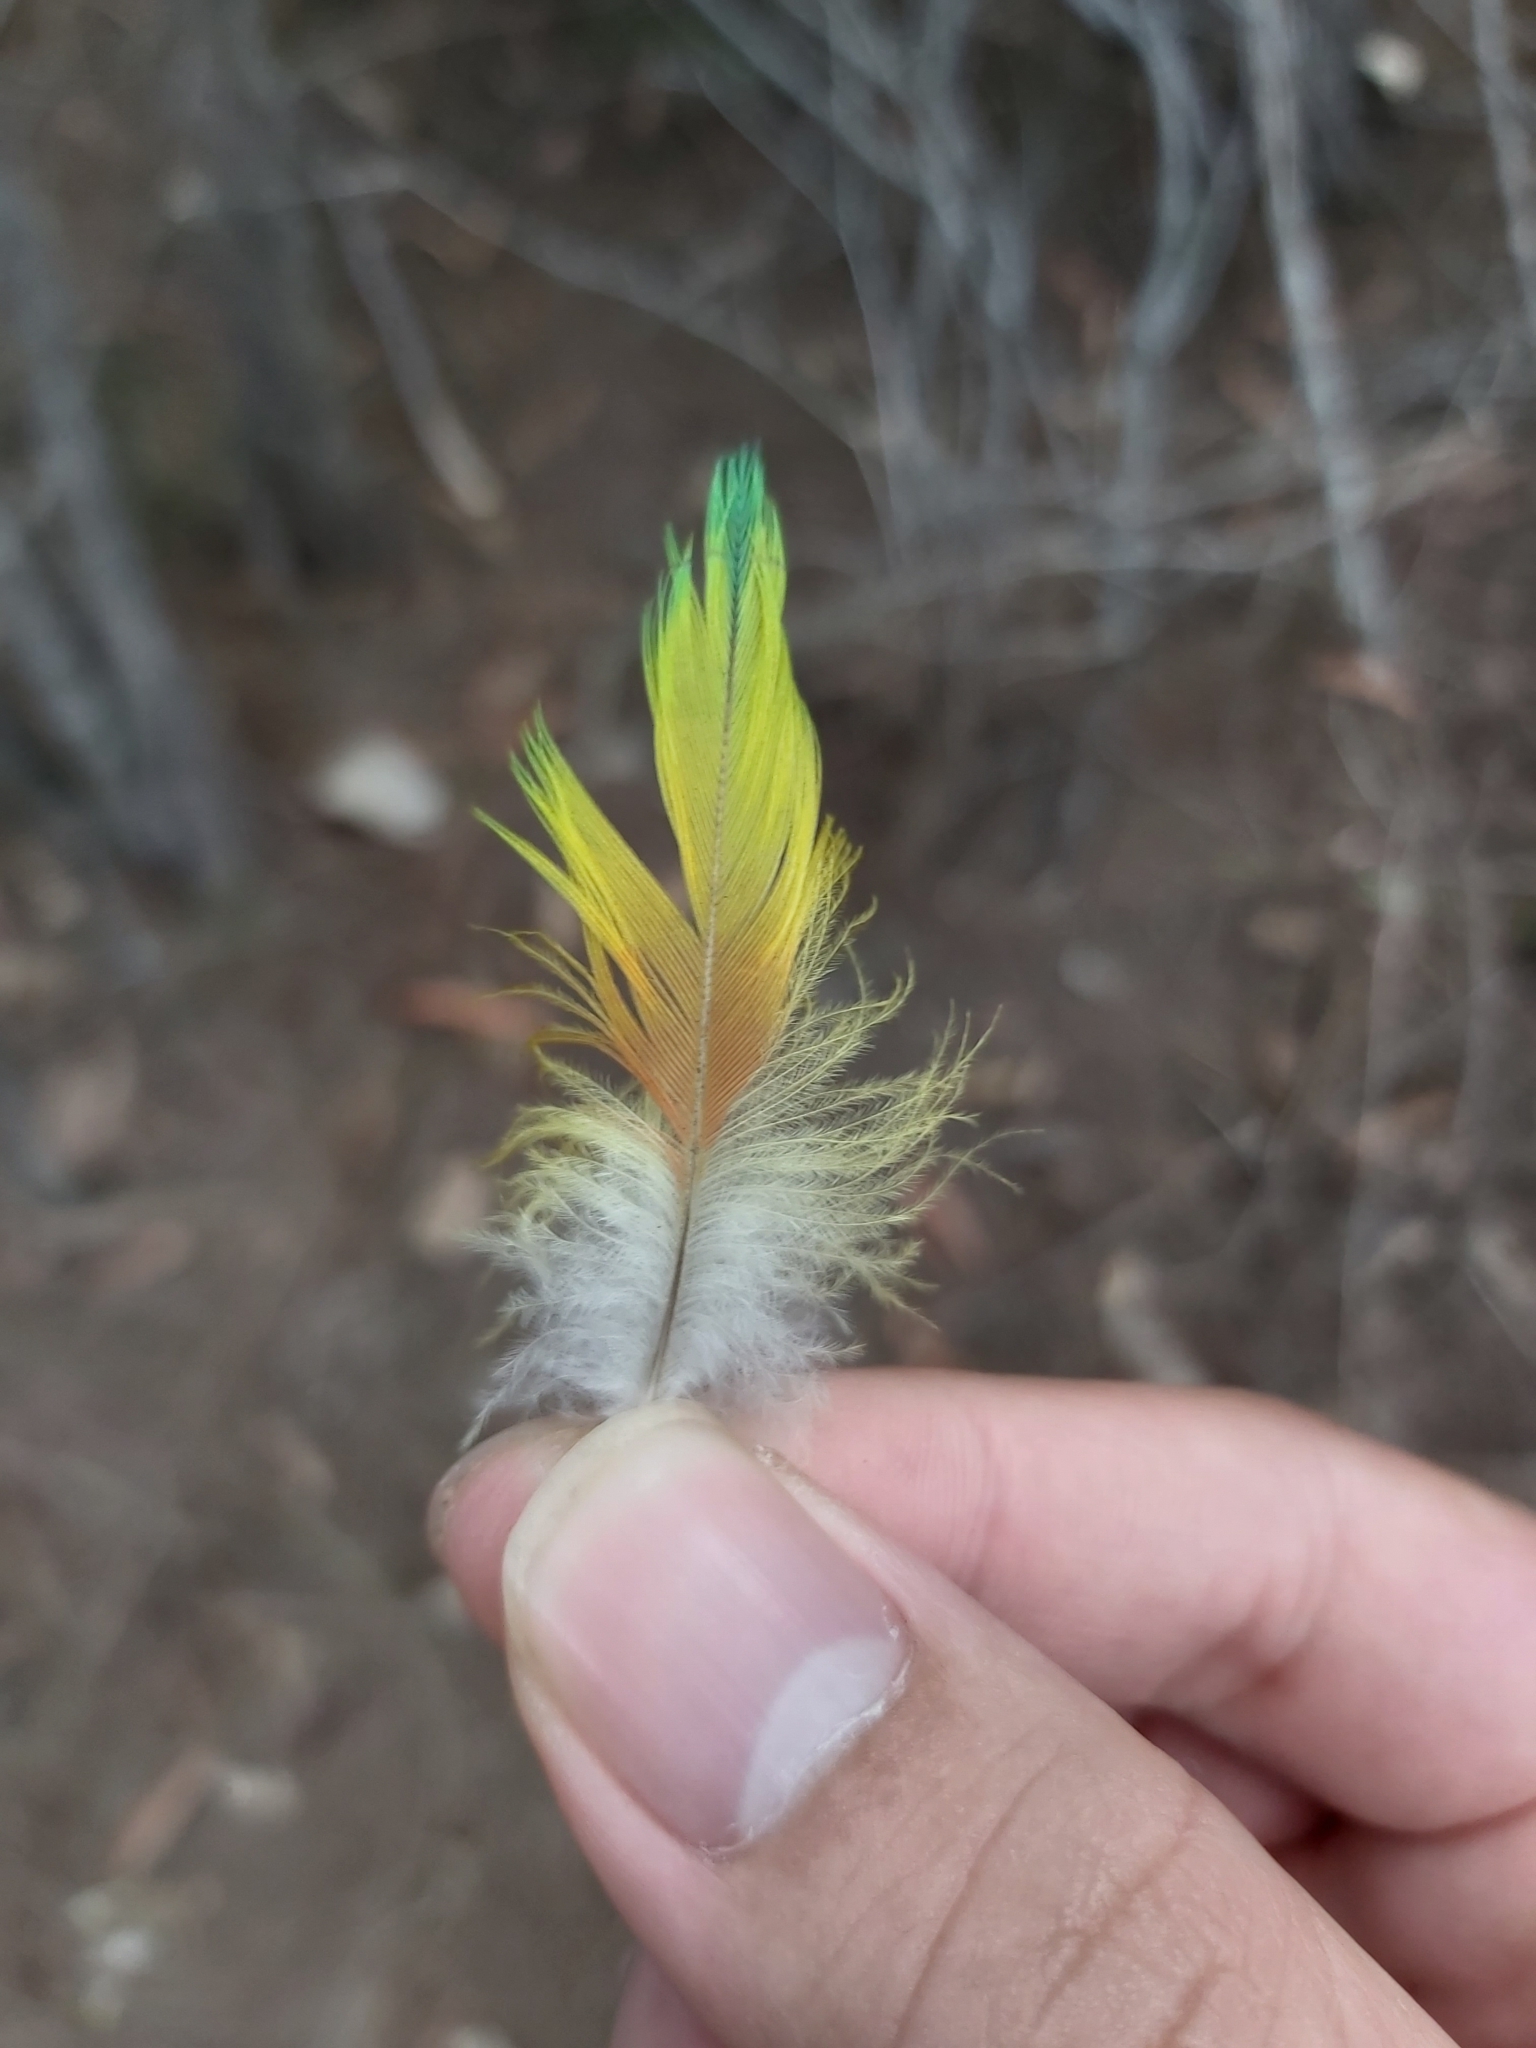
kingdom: Animalia
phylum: Chordata
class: Aves
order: Psittaciformes
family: Psittacidae
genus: Trichoglossus
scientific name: Trichoglossus haematodus
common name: Coconut lorikeet
